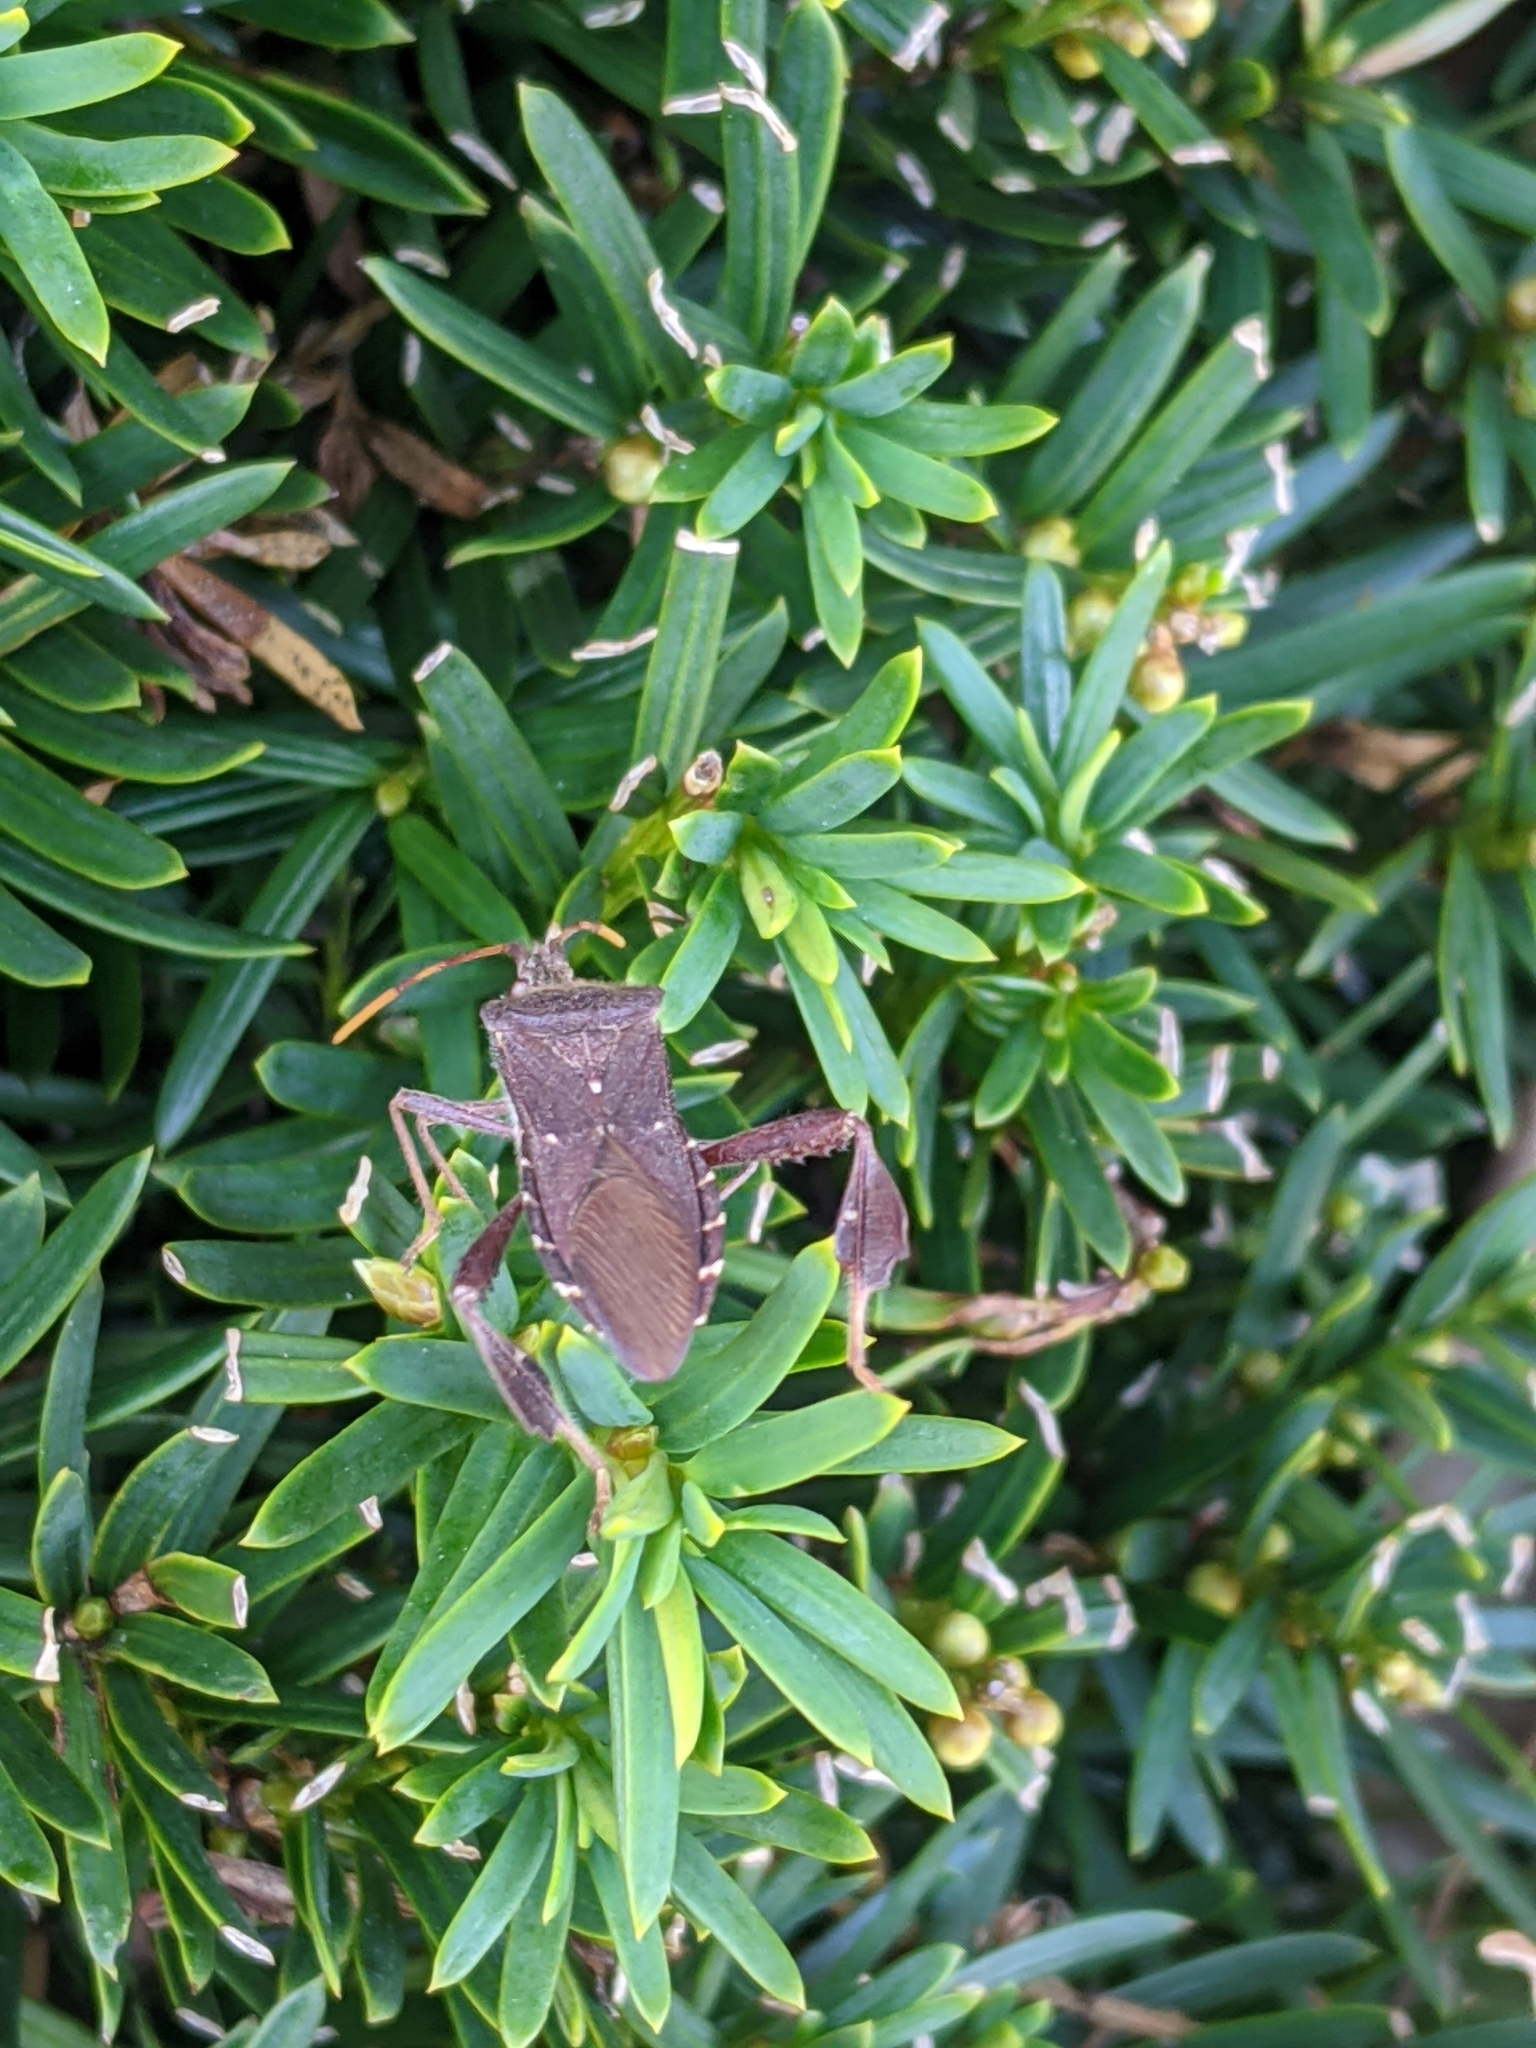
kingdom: Animalia
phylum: Arthropoda
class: Insecta
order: Hemiptera
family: Coreidae
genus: Leptoglossus
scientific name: Leptoglossus oppositus
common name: Northern leaf-footed bug
